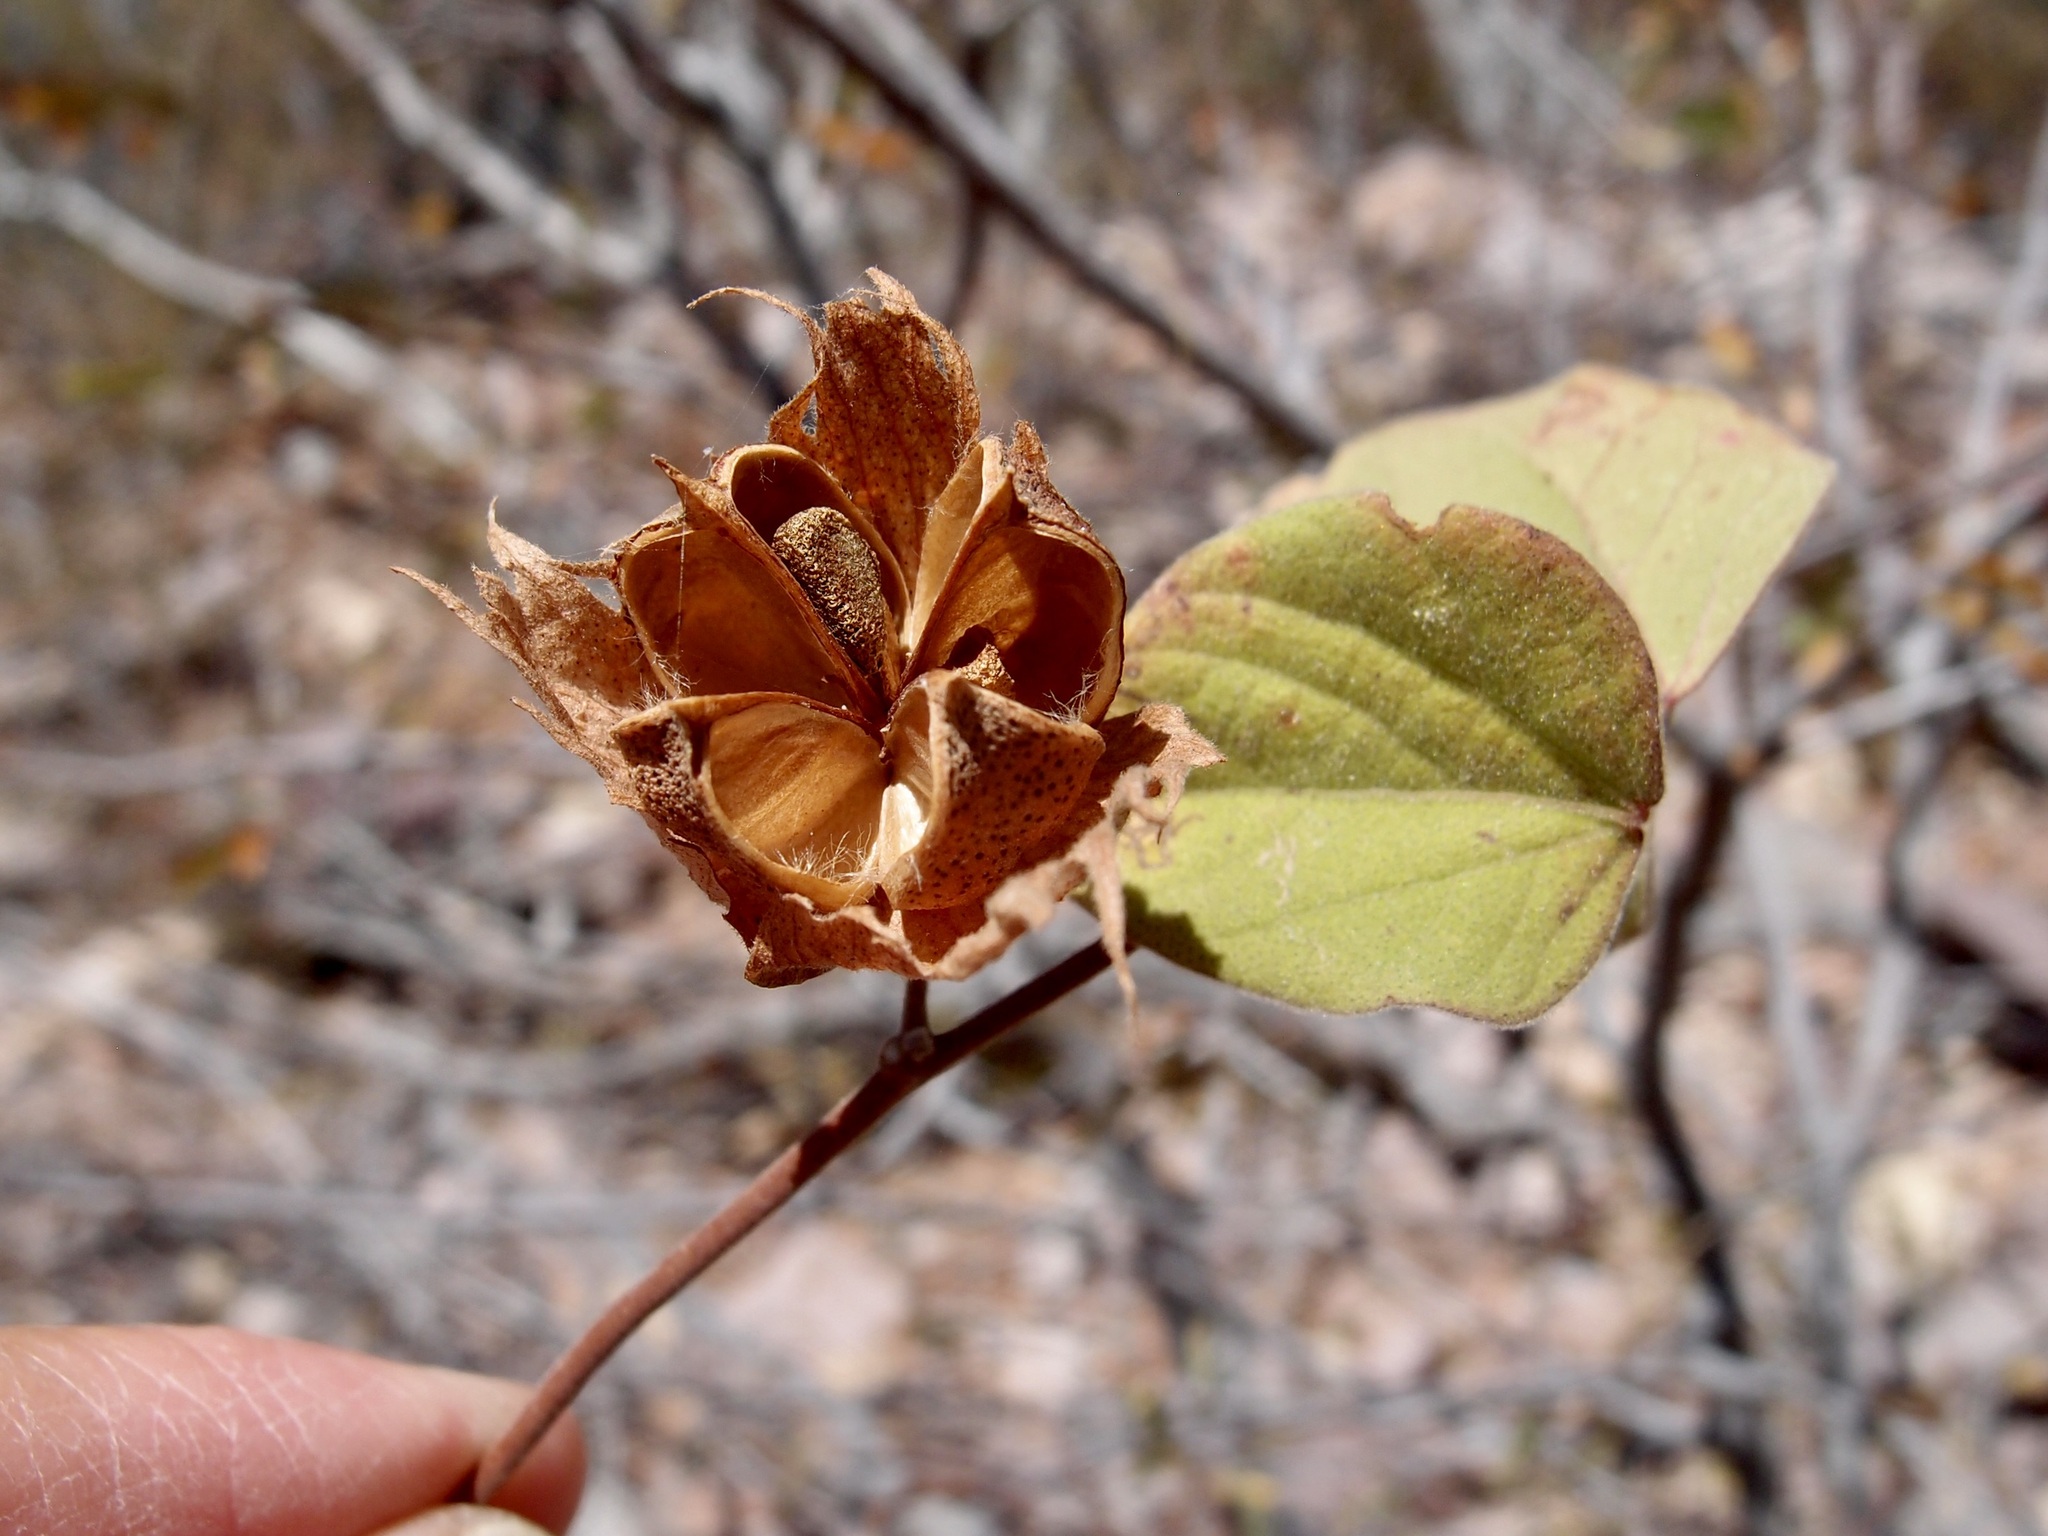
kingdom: Plantae
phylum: Tracheophyta
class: Magnoliopsida
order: Malvales
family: Malvaceae
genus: Gossypium
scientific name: Gossypium klotzschianum
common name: Galapagos cotton
